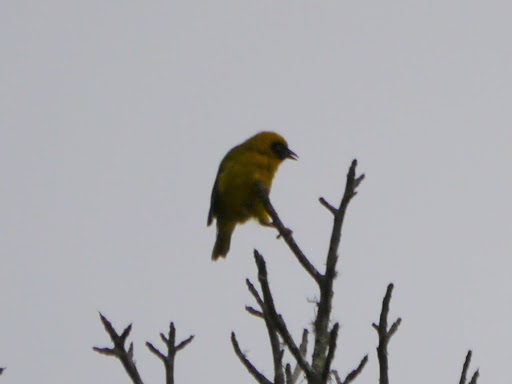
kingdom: Animalia
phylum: Chordata
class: Aves
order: Passeriformes
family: Ploceidae
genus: Ploceus
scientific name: Ploceus bannermani
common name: Bannerman's weaver
